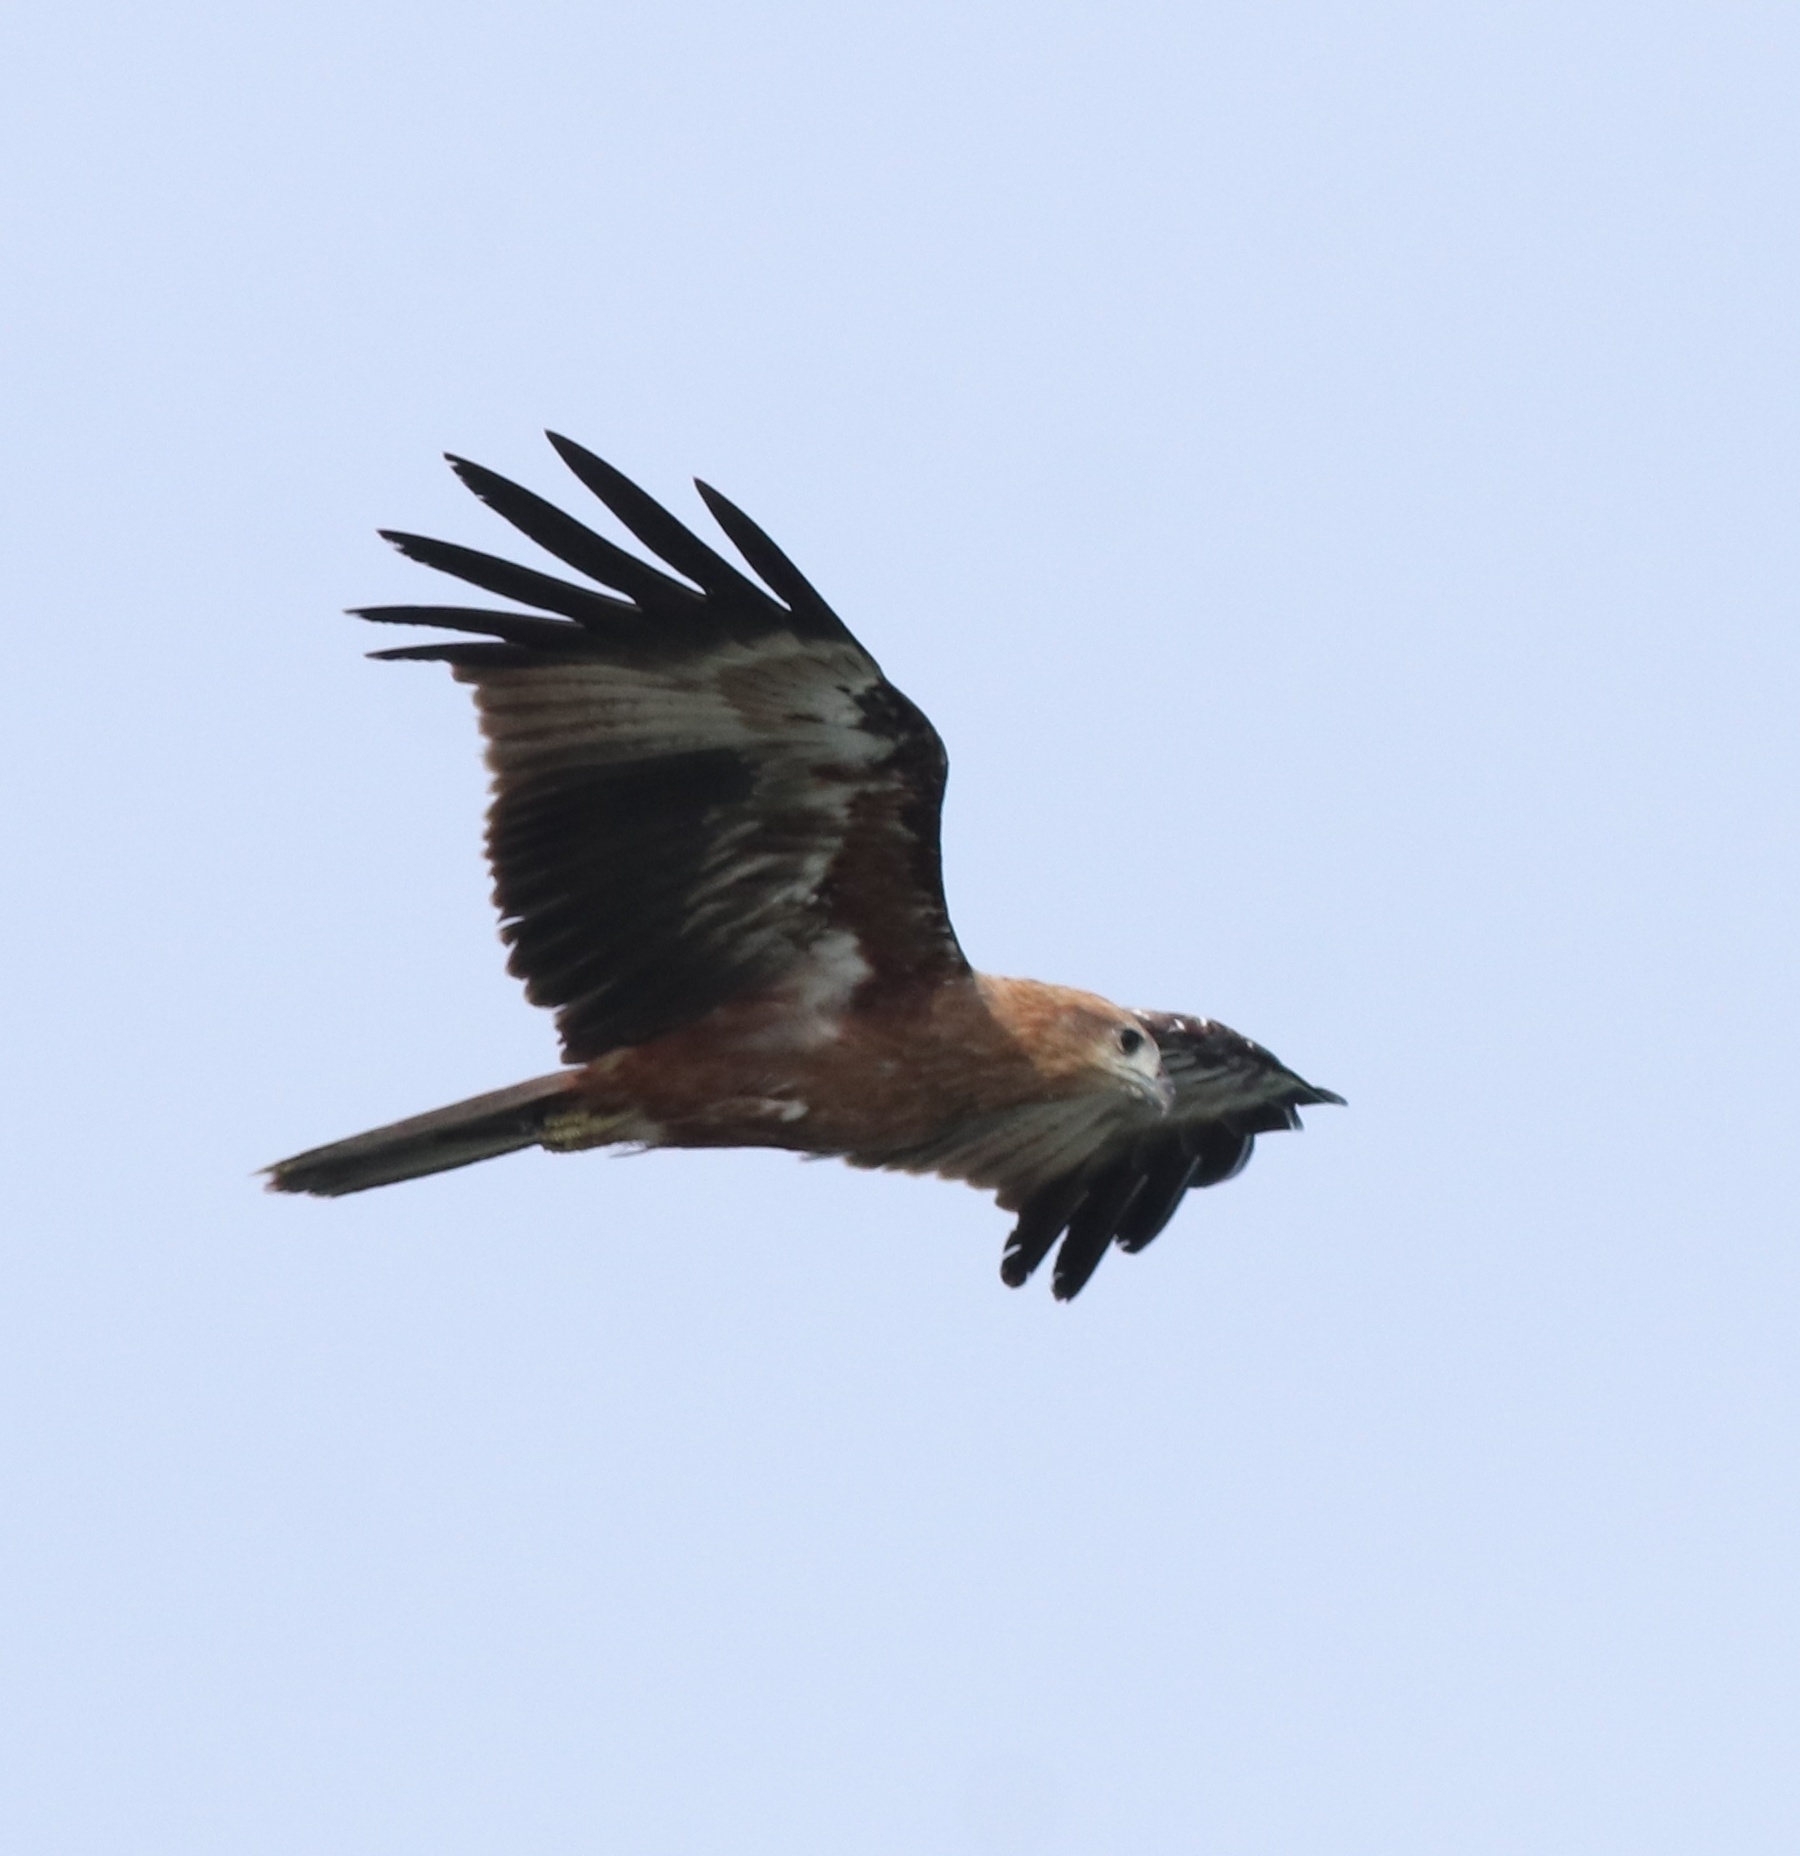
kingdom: Animalia
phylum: Chordata
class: Aves
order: Accipitriformes
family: Accipitridae
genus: Haliastur
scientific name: Haliastur indus
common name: Brahminy kite
